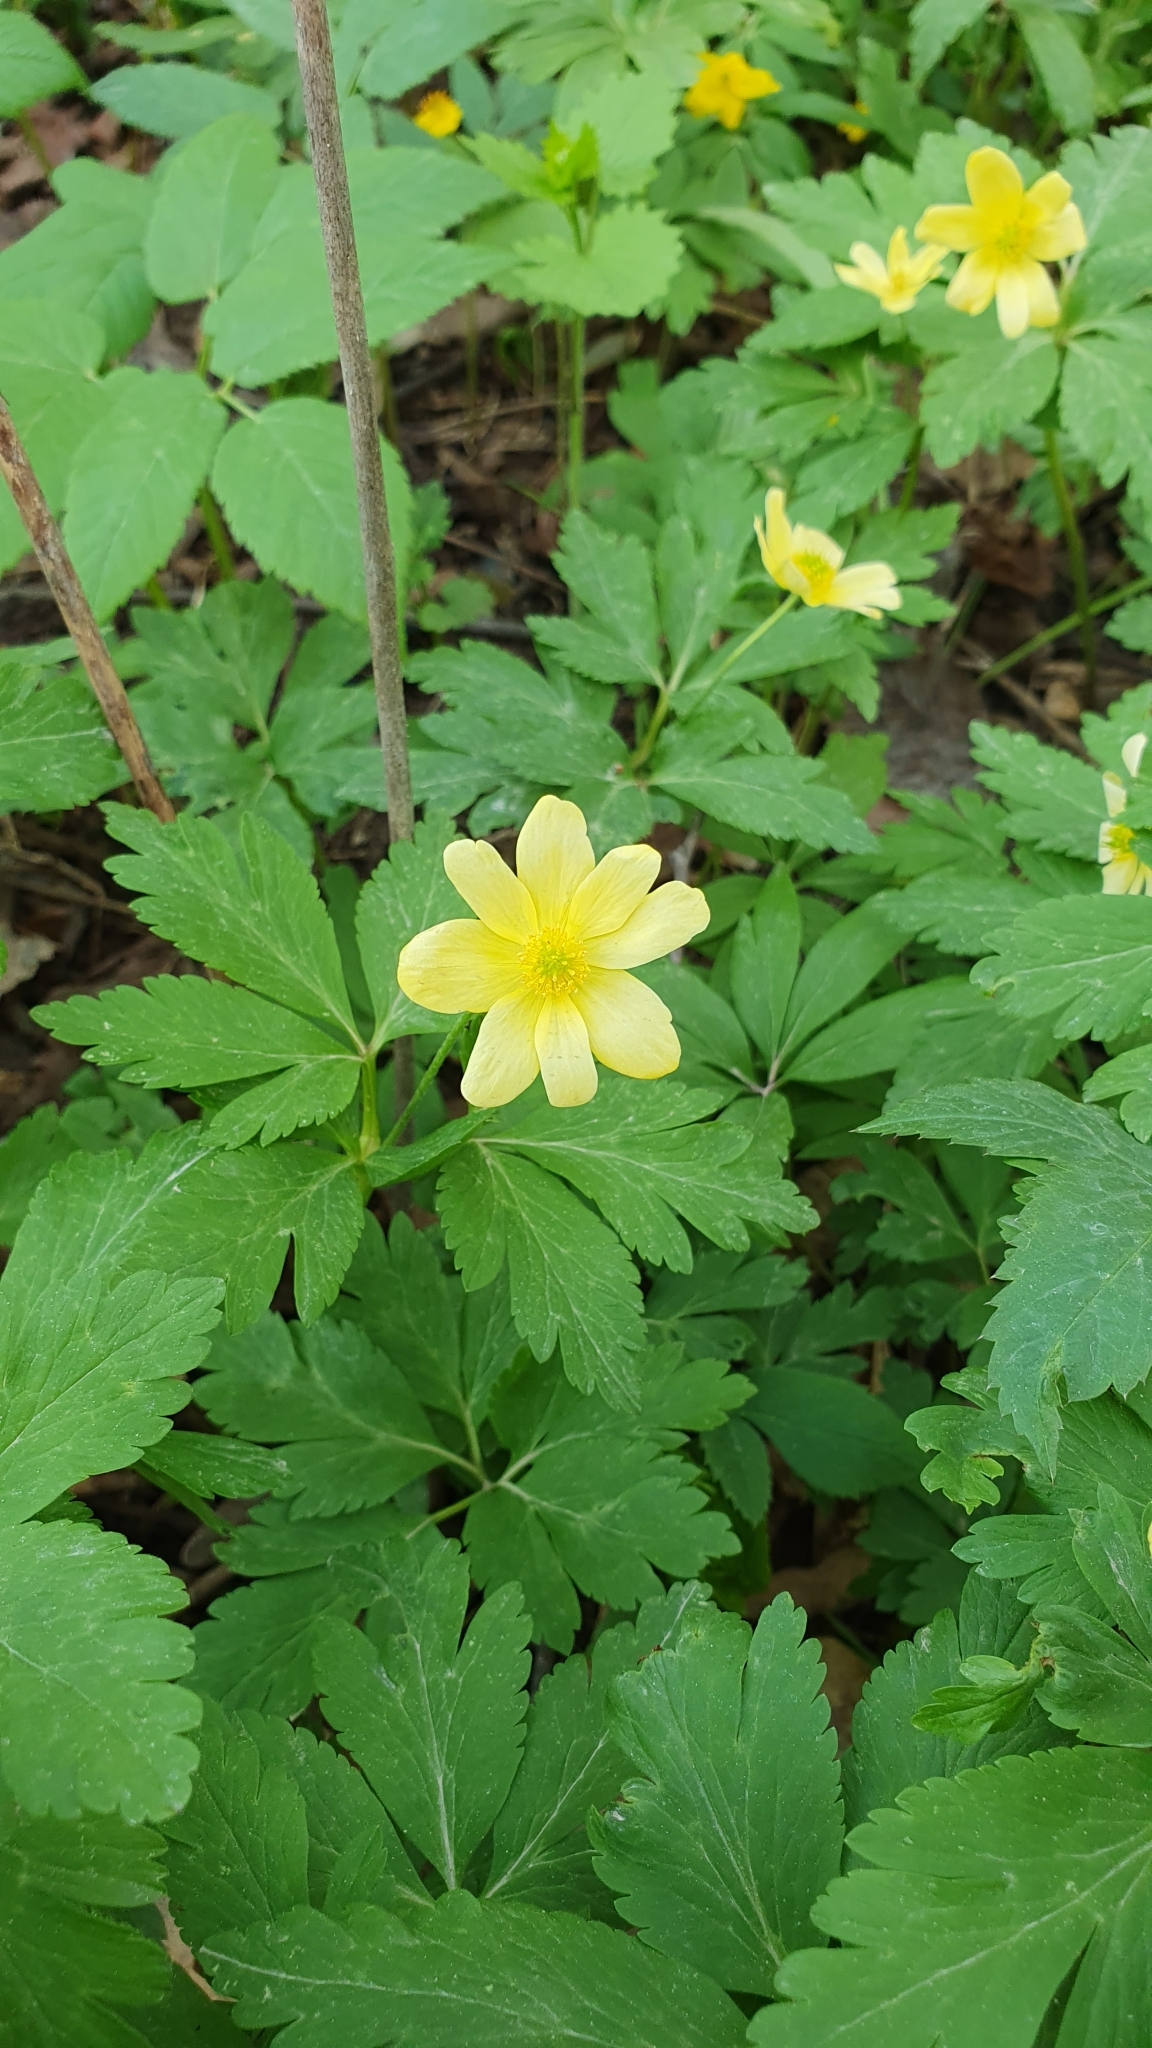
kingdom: Plantae
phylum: Tracheophyta
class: Magnoliopsida
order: Ranunculales
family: Ranunculaceae
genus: Anemone
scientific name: Anemone korzchinskyi
